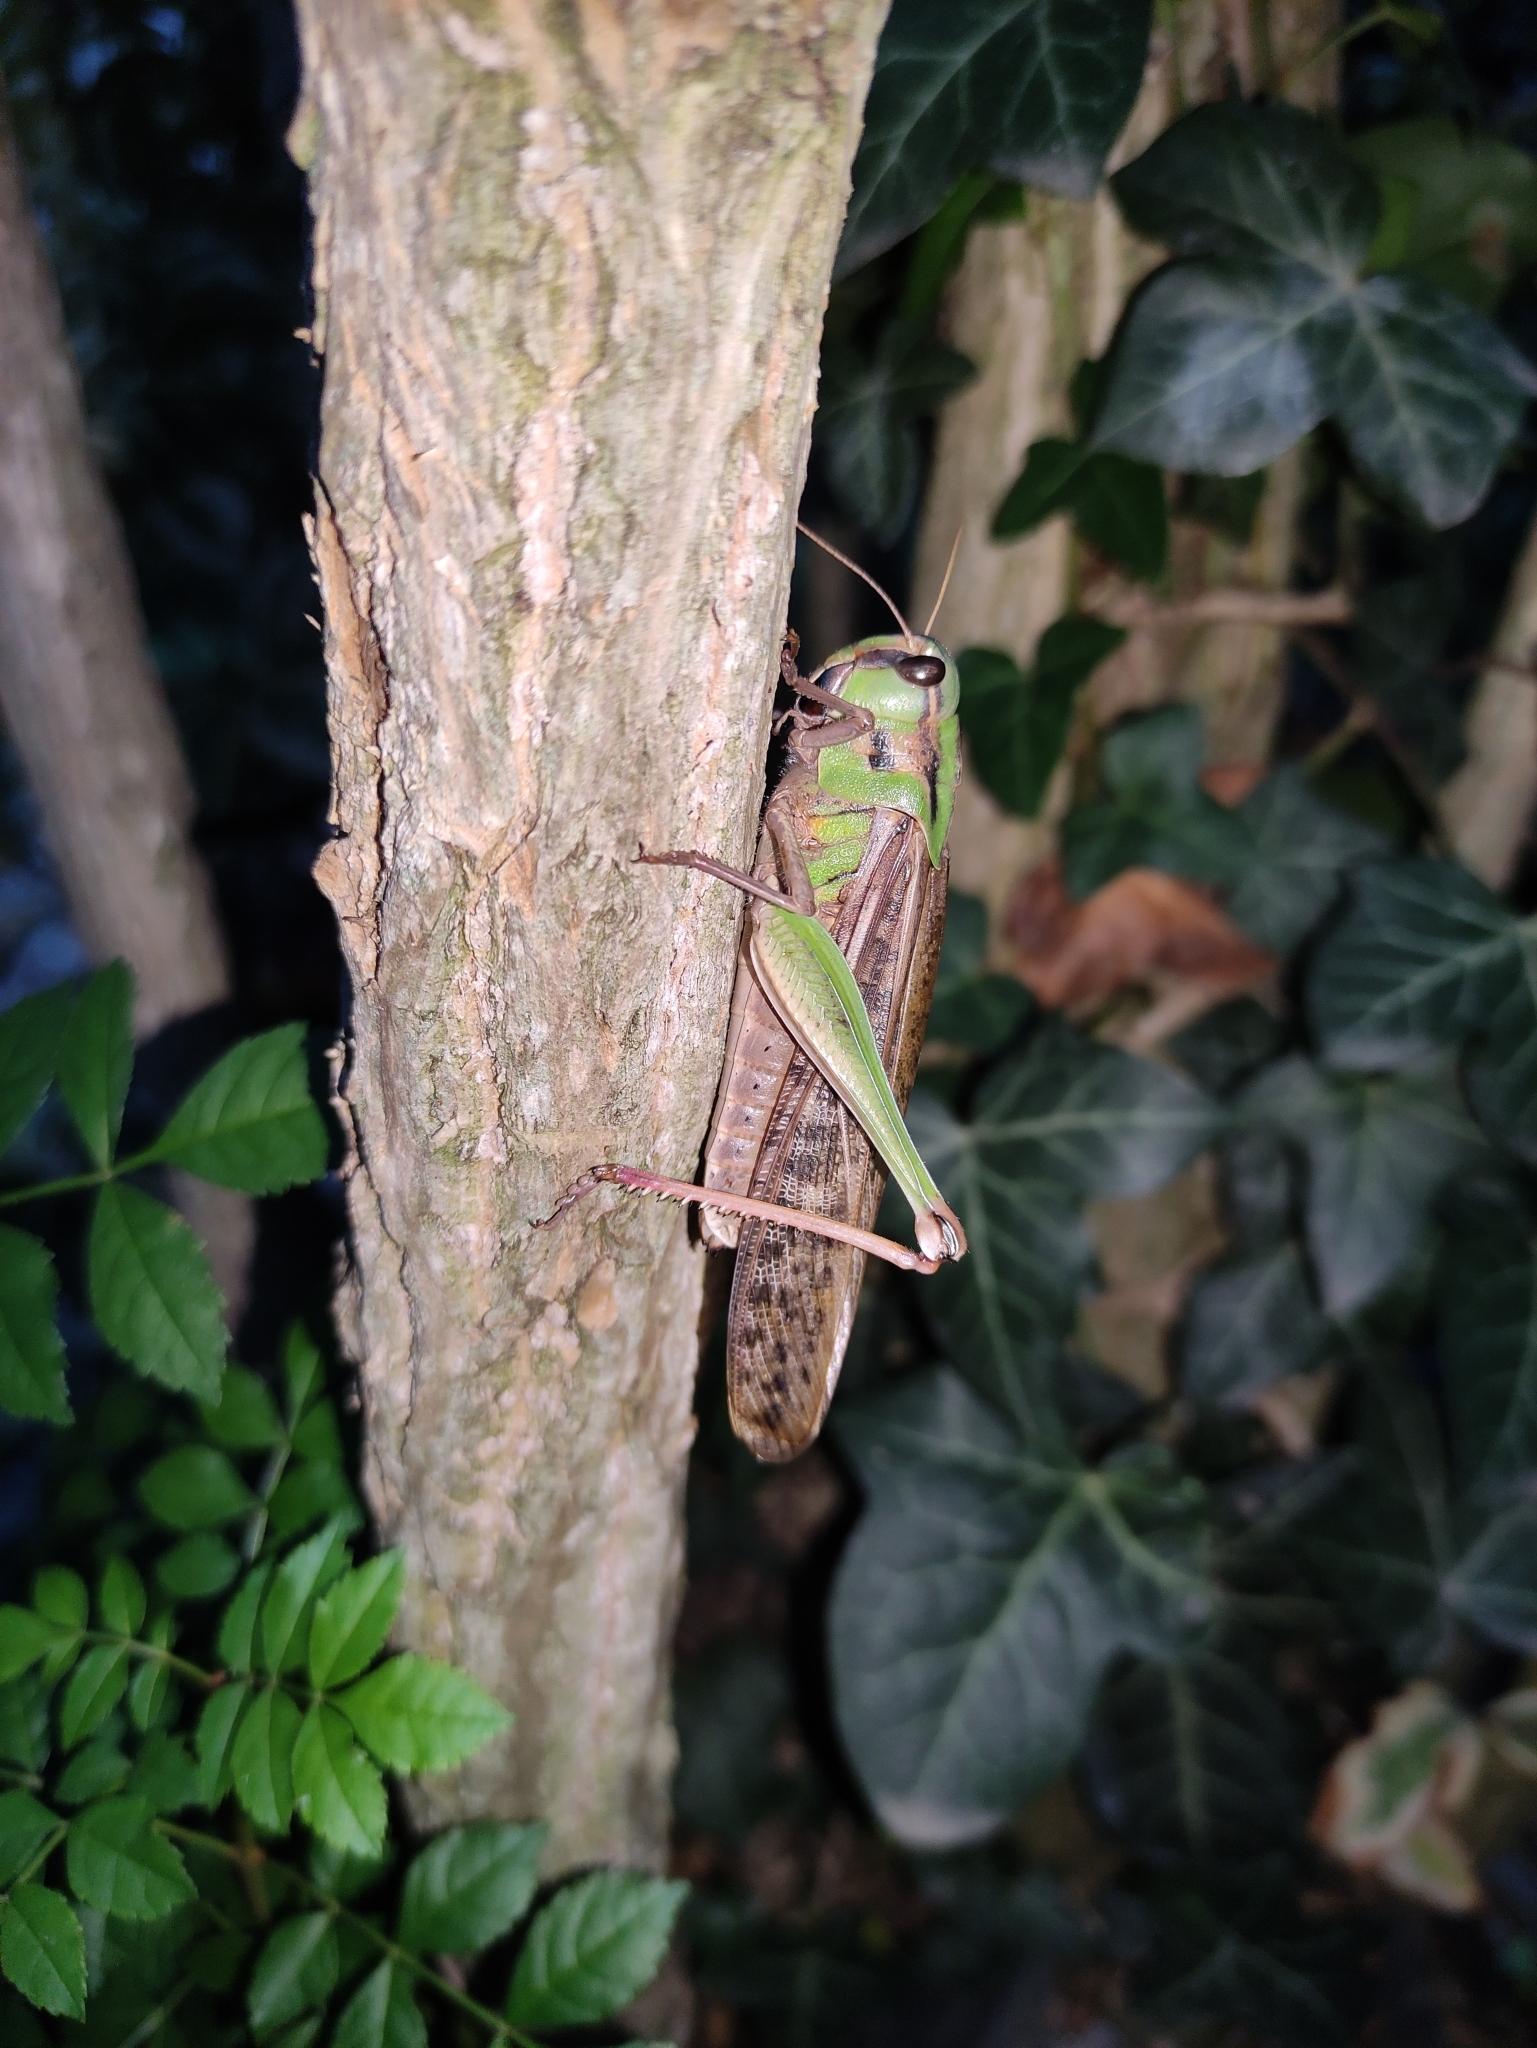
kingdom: Animalia
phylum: Arthropoda
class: Insecta
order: Orthoptera
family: Acrididae
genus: Locusta
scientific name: Locusta migratoria
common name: Migratory locust
